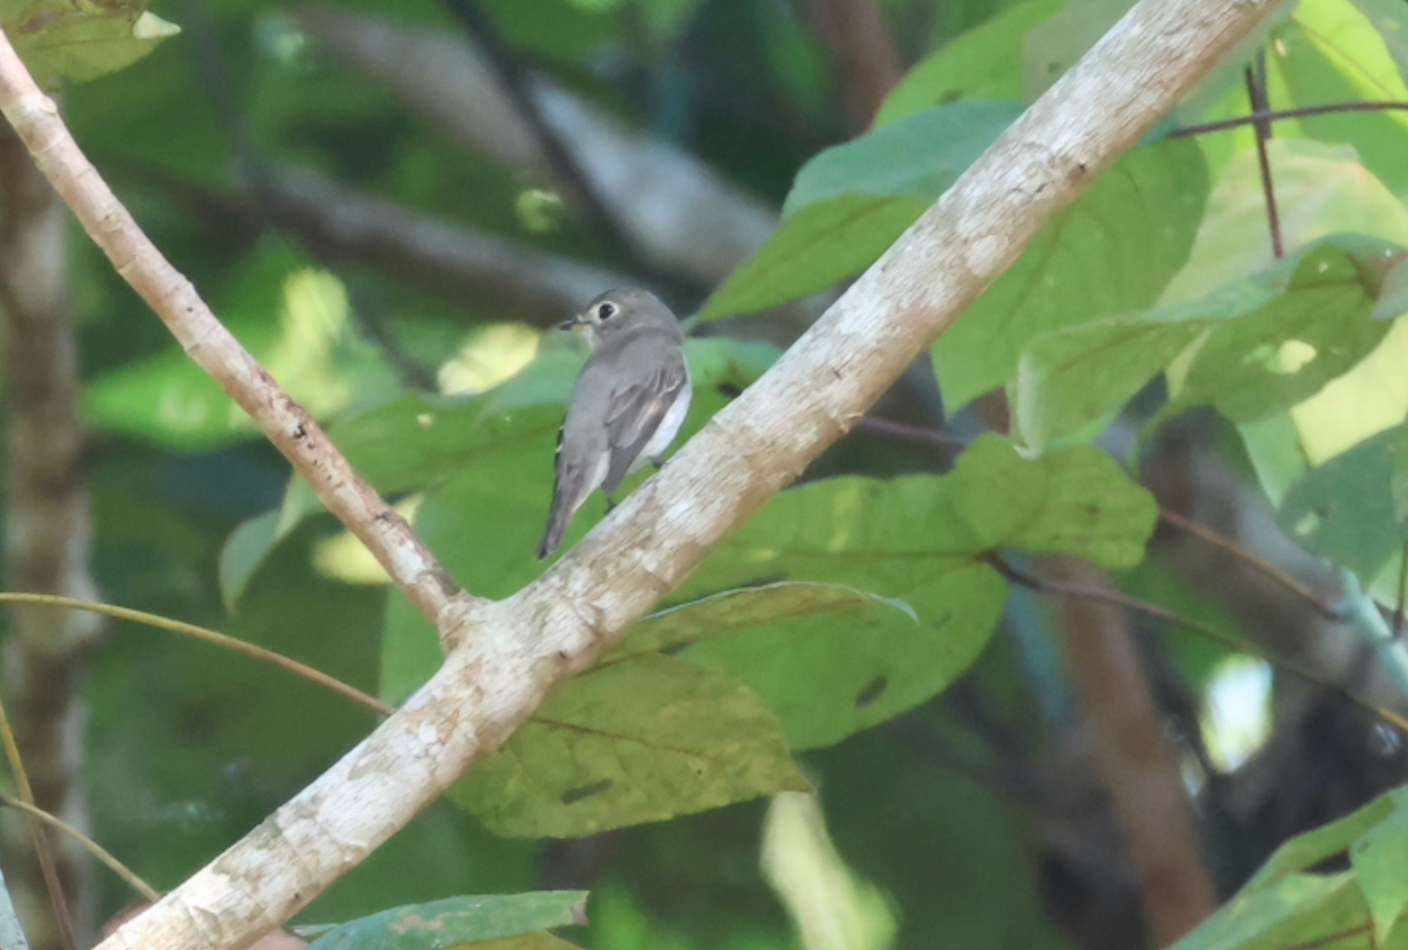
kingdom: Animalia
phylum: Chordata
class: Aves
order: Passeriformes
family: Muscicapidae
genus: Muscicapa
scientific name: Muscicapa latirostris
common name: Asian brown flycatcher
